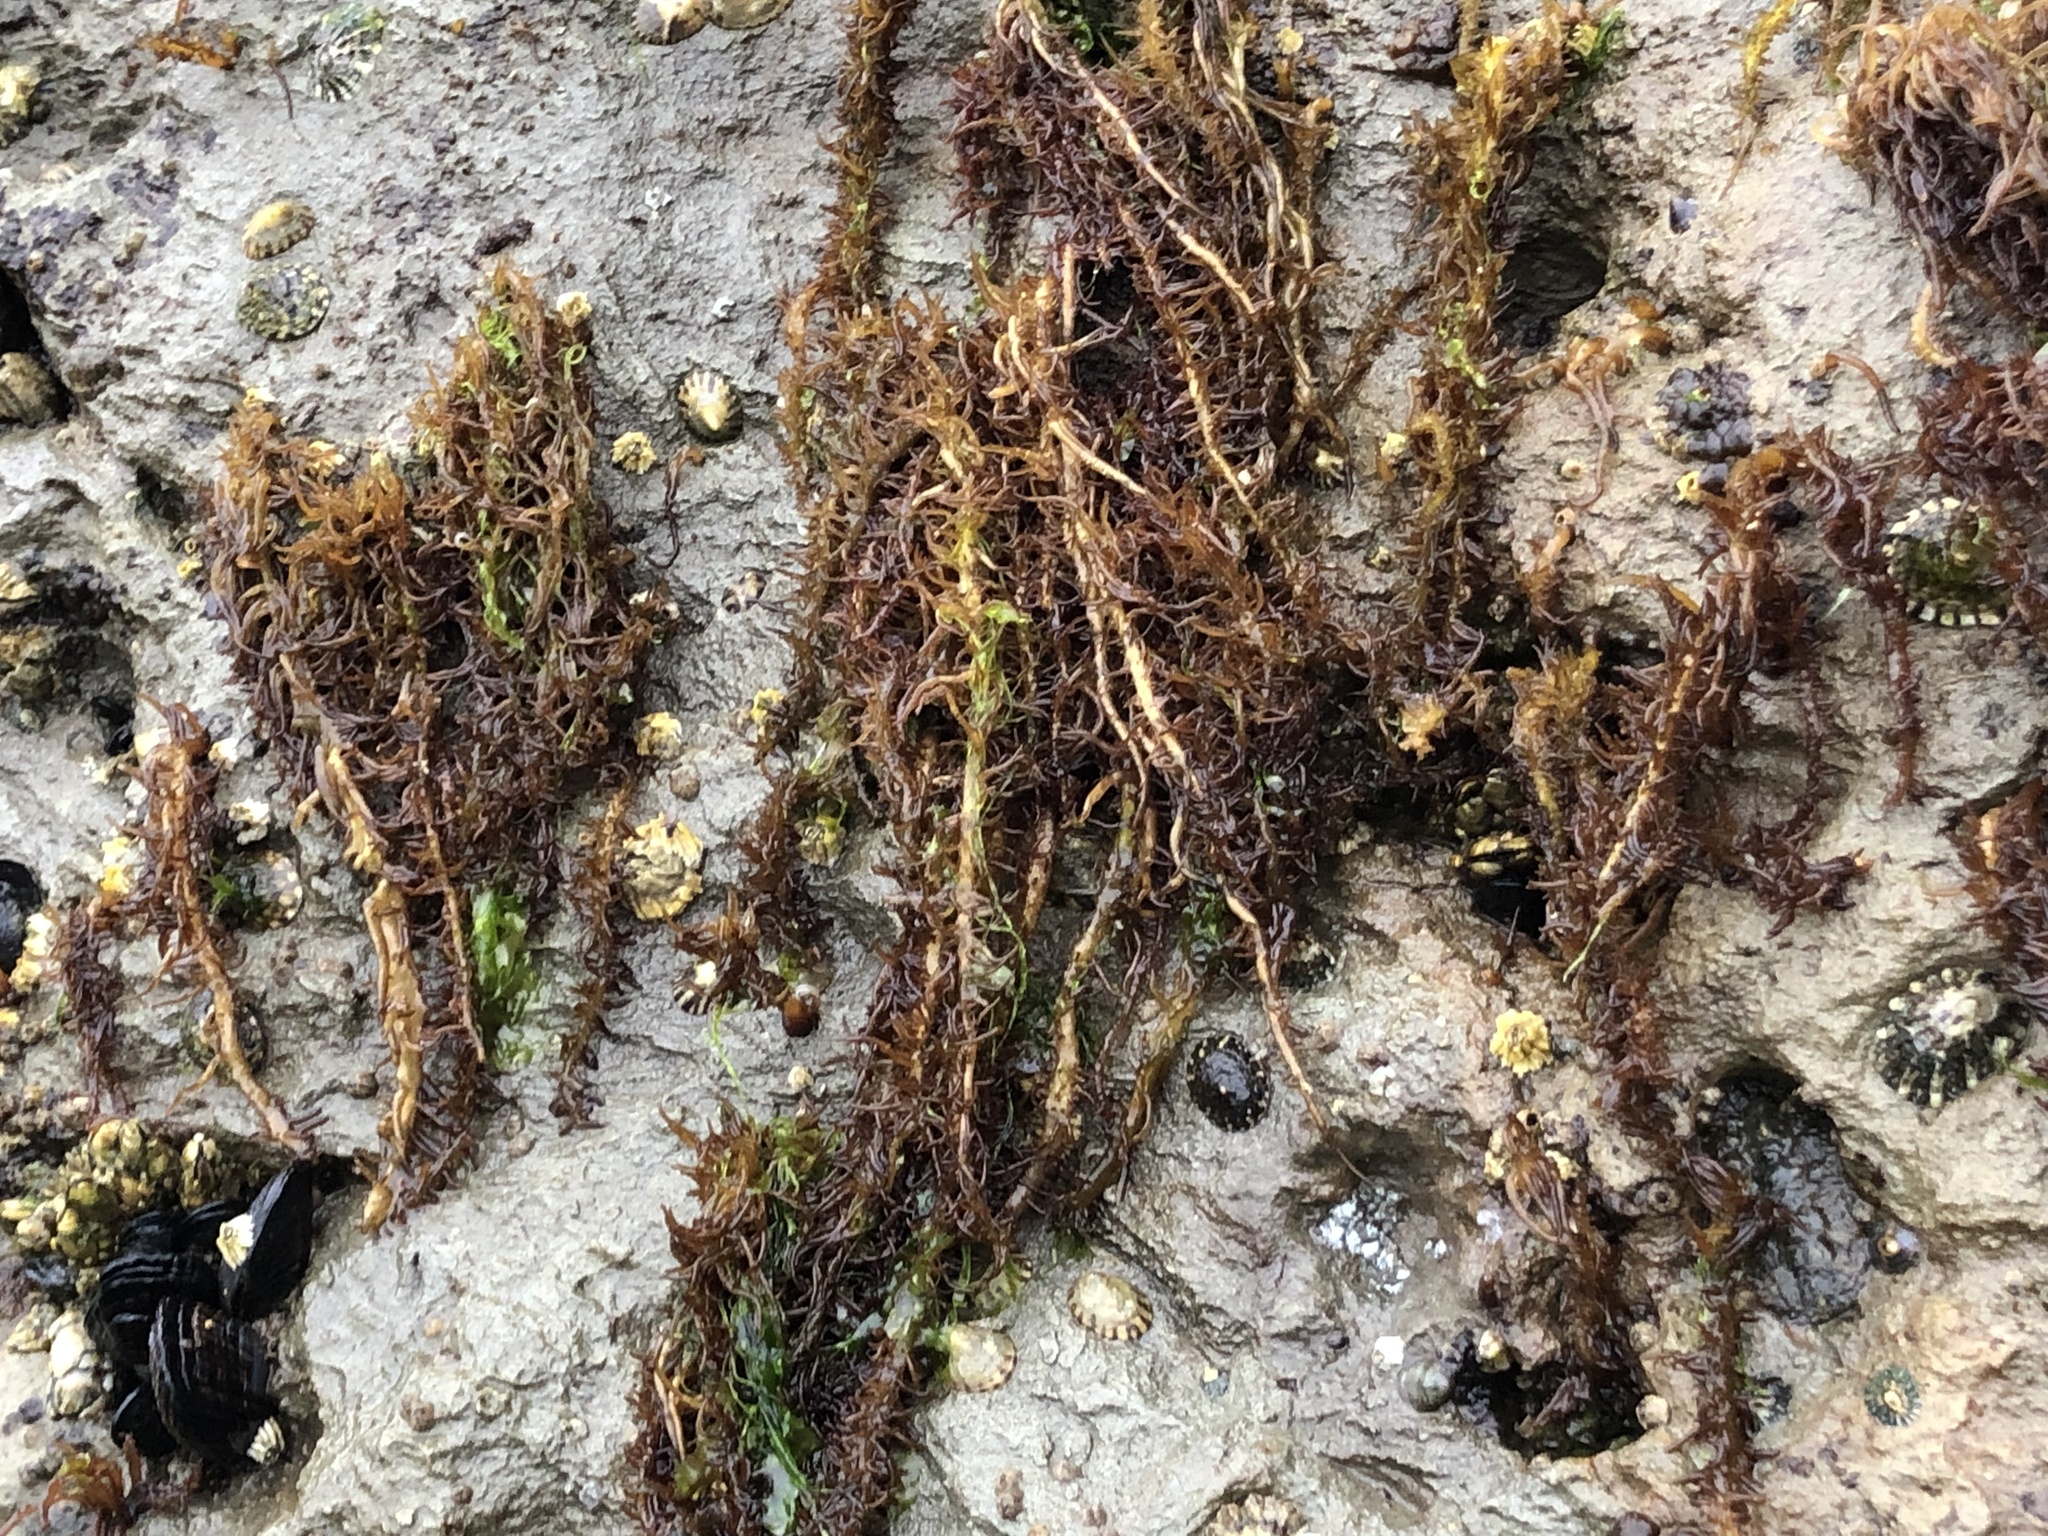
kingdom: Plantae
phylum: Rhodophyta
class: Florideophyceae
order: Nemaliales
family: Liagoraceae
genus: Cumagloia
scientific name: Cumagloia andersonii
